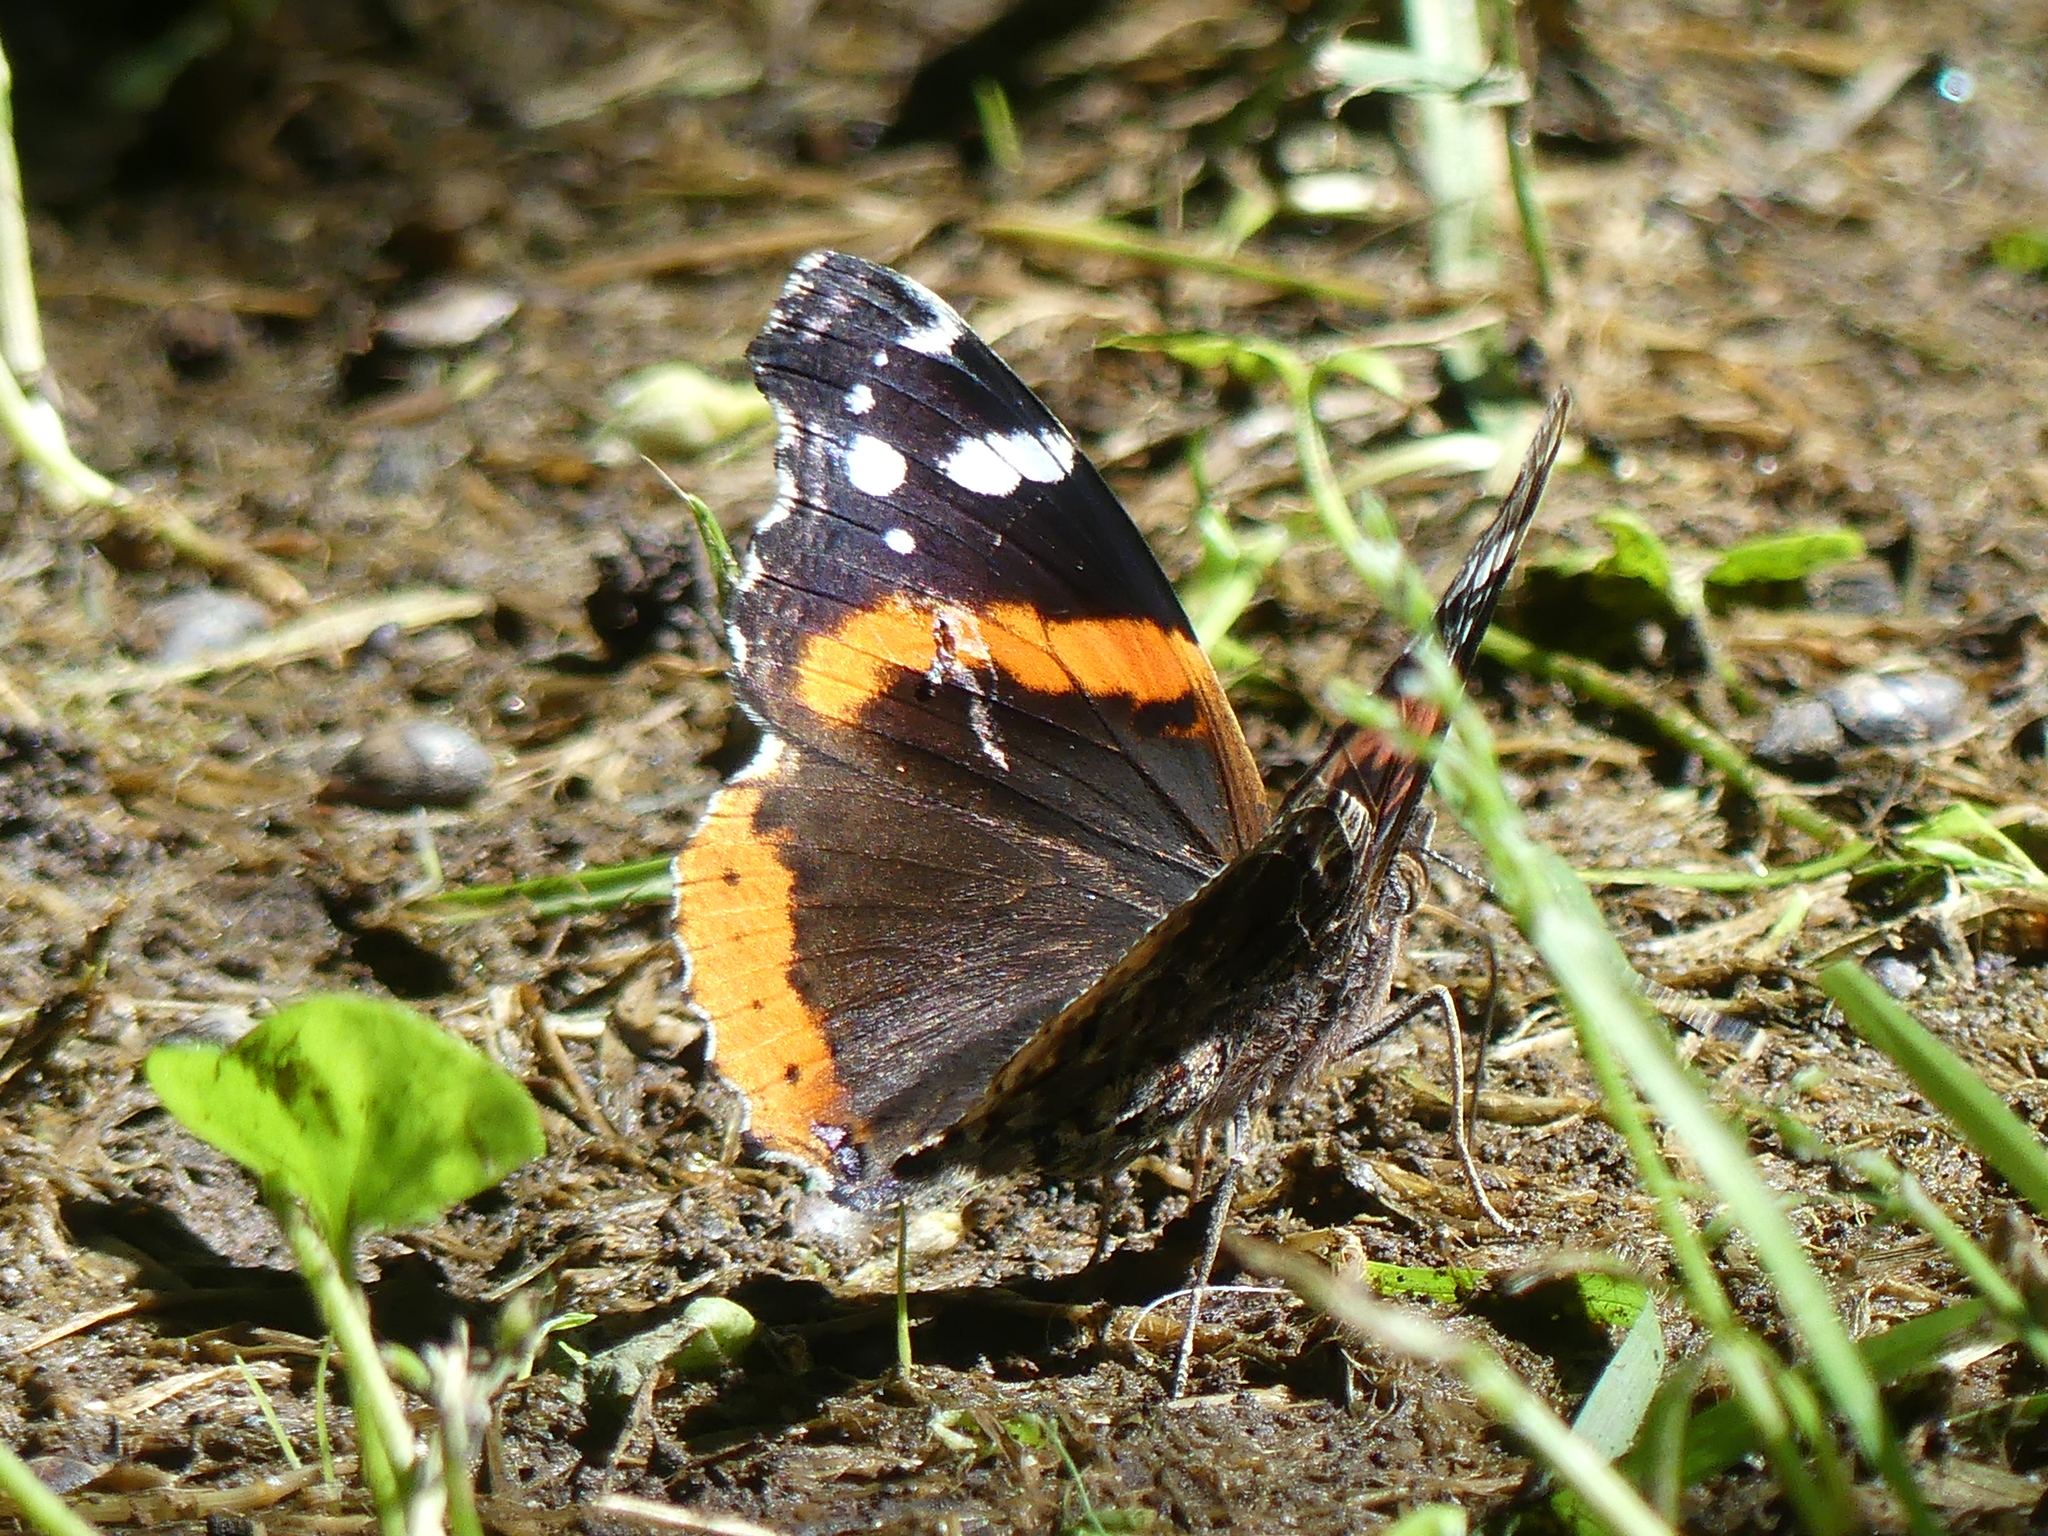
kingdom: Animalia
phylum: Arthropoda
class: Insecta
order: Lepidoptera
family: Nymphalidae
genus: Vanessa
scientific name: Vanessa atalanta
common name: Red admiral
